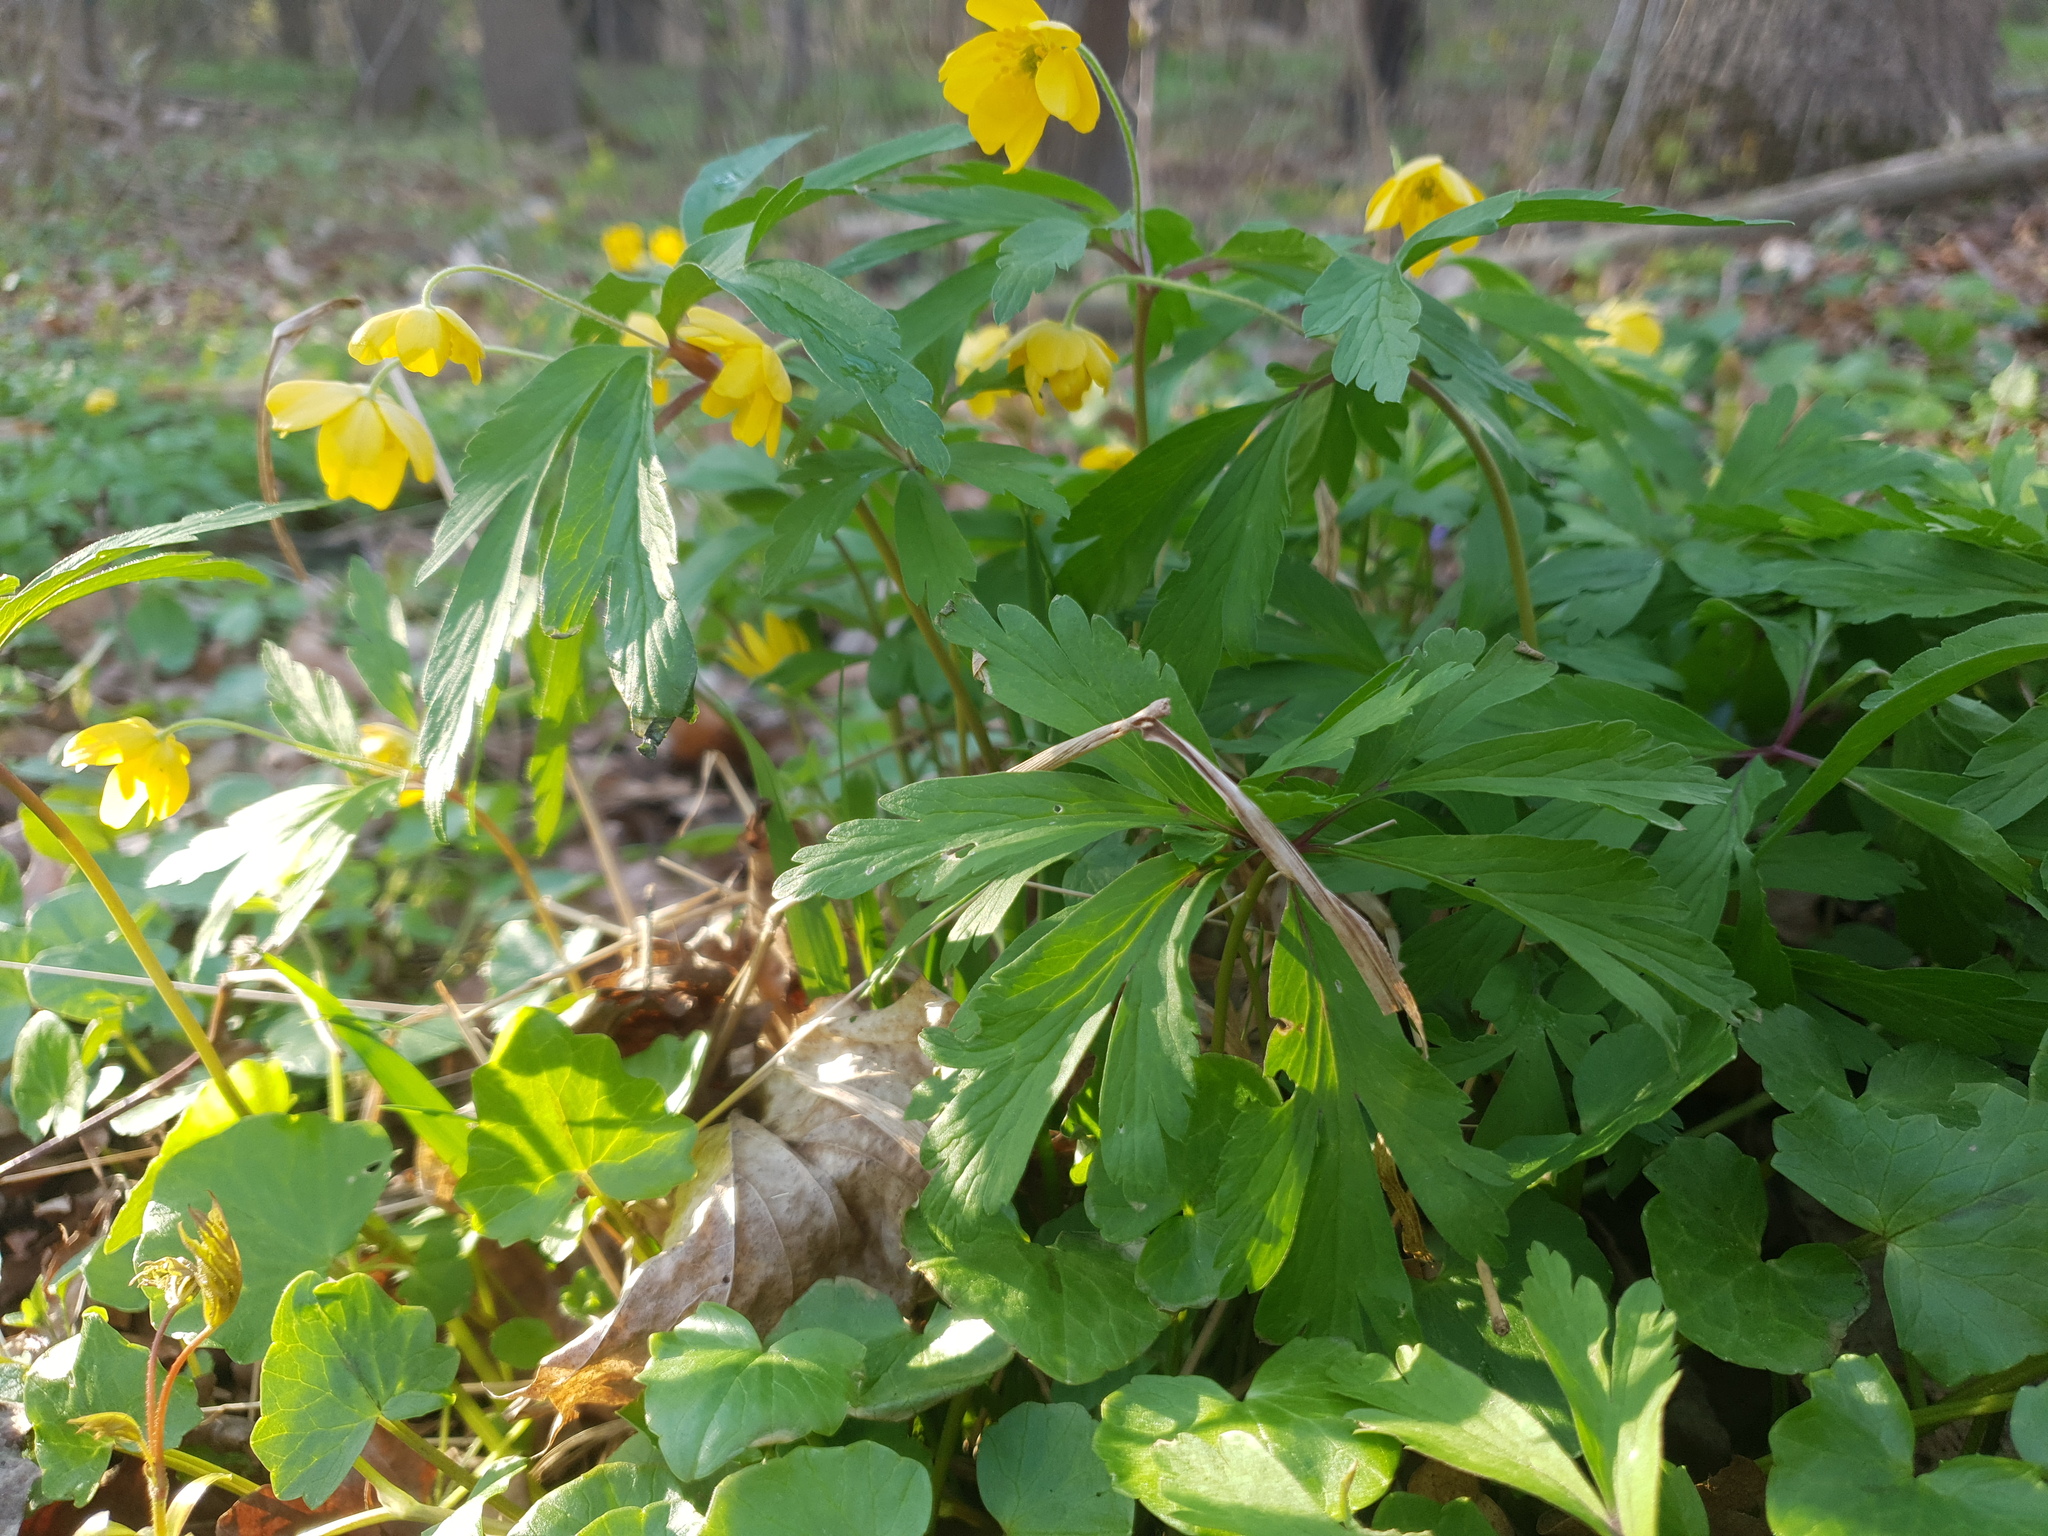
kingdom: Plantae
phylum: Tracheophyta
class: Magnoliopsida
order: Ranunculales
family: Ranunculaceae
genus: Anemone
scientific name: Anemone ranunculoides
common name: Yellow anemone
